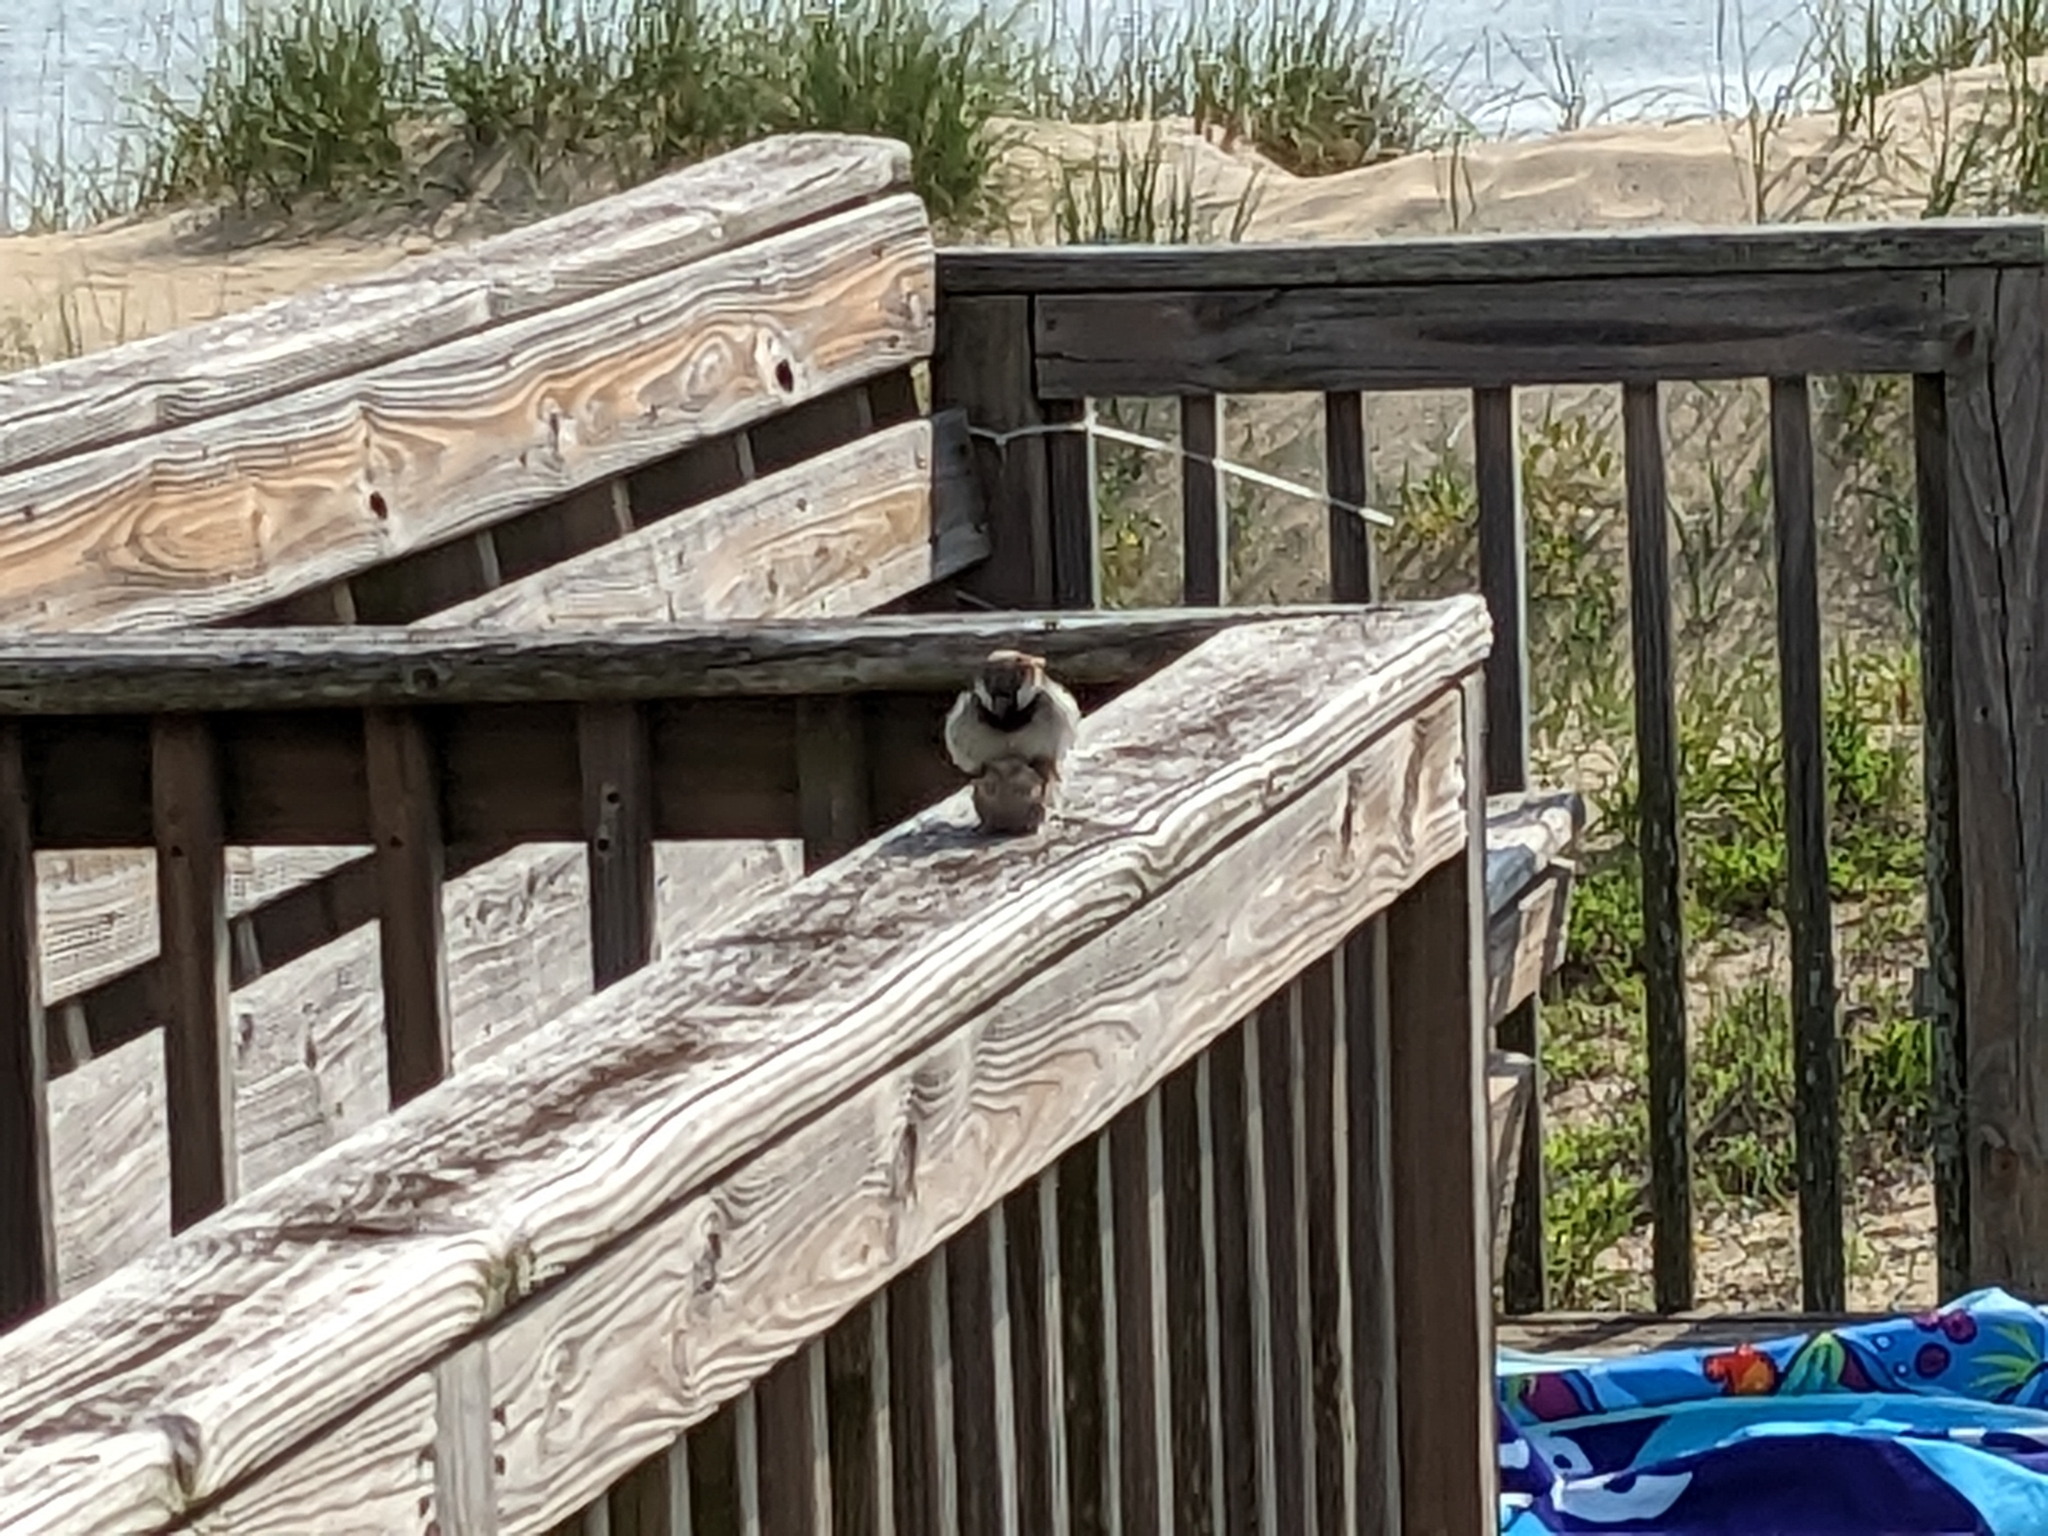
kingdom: Animalia
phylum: Chordata
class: Aves
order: Passeriformes
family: Passeridae
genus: Passer
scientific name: Passer domesticus
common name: House sparrow
